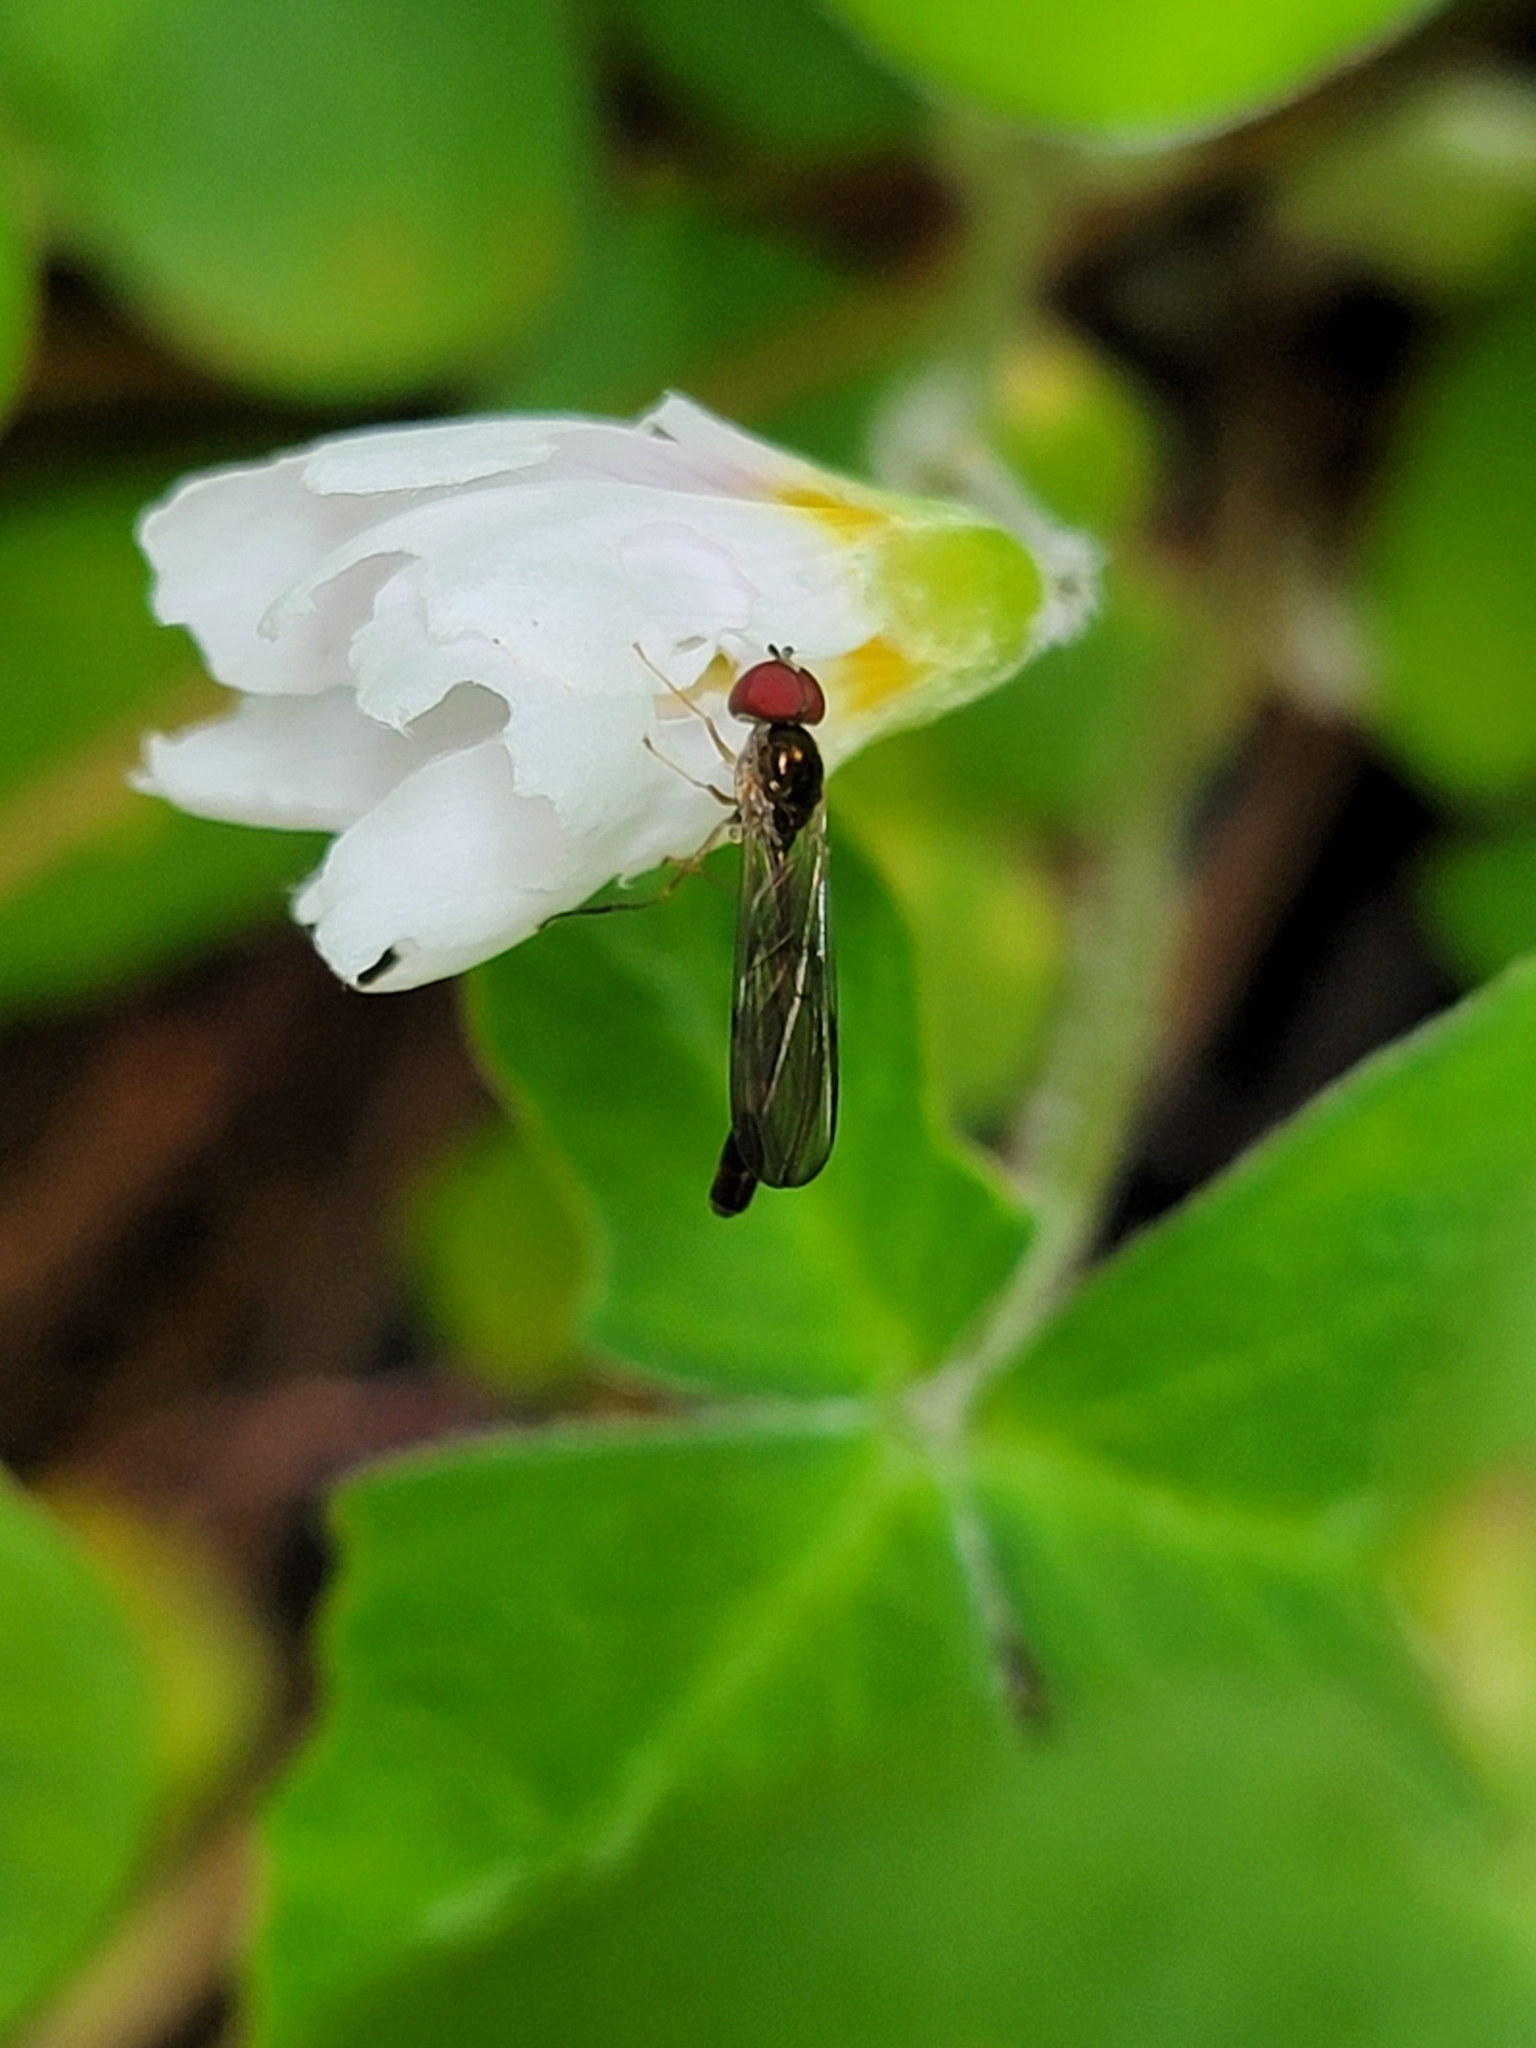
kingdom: Animalia
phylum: Arthropoda
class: Insecta
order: Diptera
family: Syrphidae
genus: Baccha
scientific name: Baccha cognata
